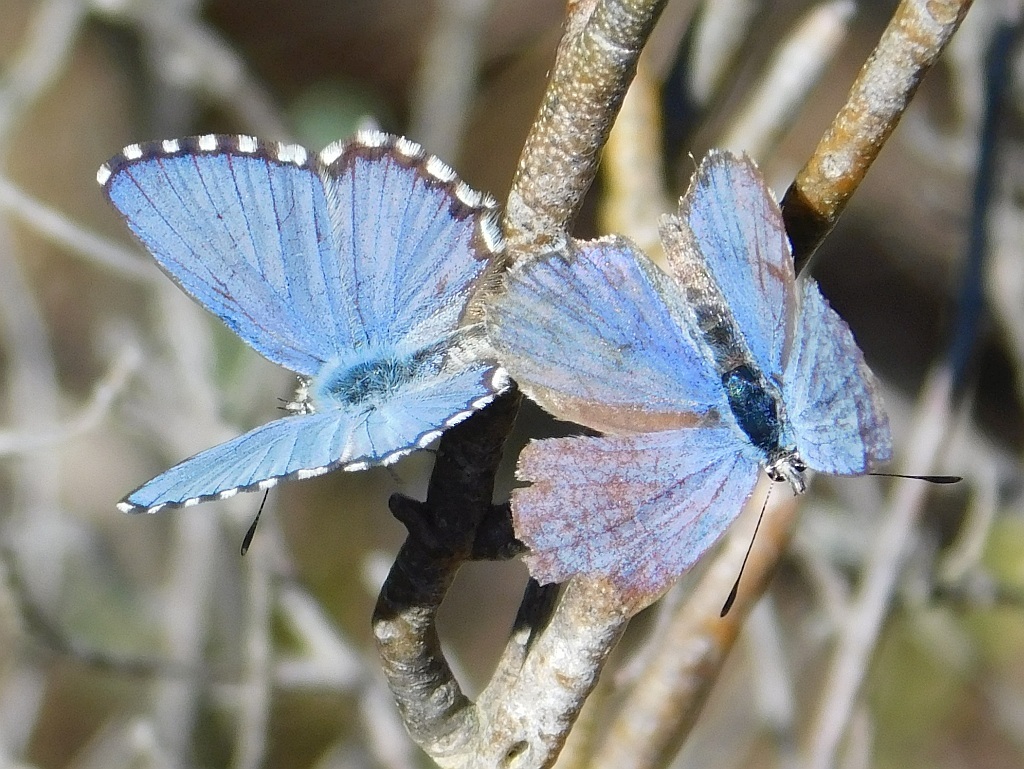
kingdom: Animalia
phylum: Arthropoda
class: Insecta
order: Lepidoptera
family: Lycaenidae
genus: Tarucus
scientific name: Tarucus thespis
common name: Vivid dotted blue
